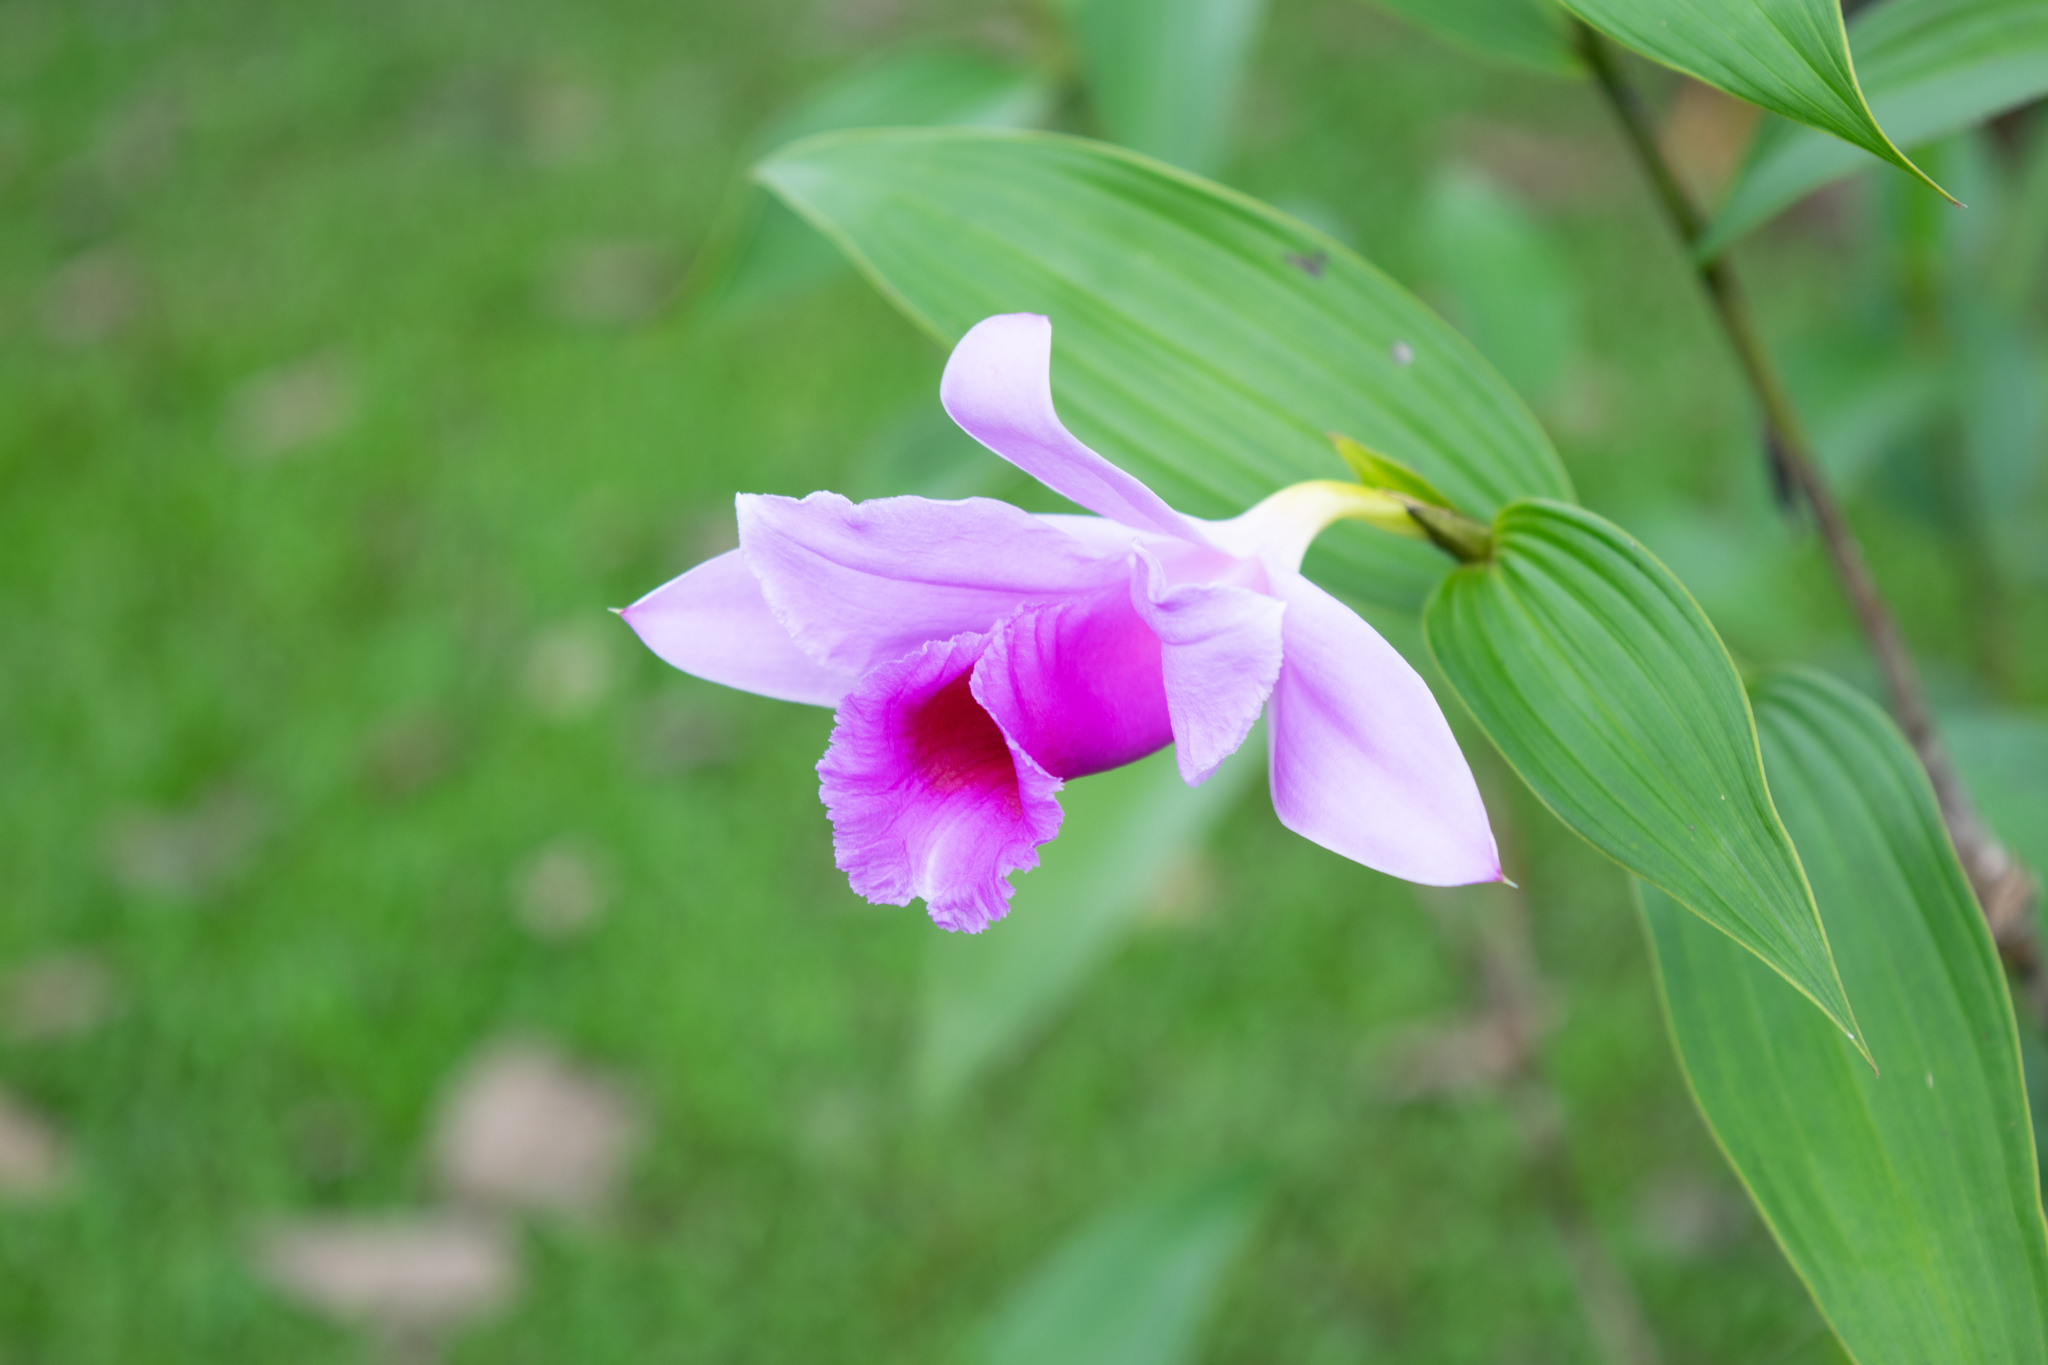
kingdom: Plantae
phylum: Tracheophyta
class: Liliopsida
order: Asparagales
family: Orchidaceae
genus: Sobralia
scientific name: Sobralia decora
